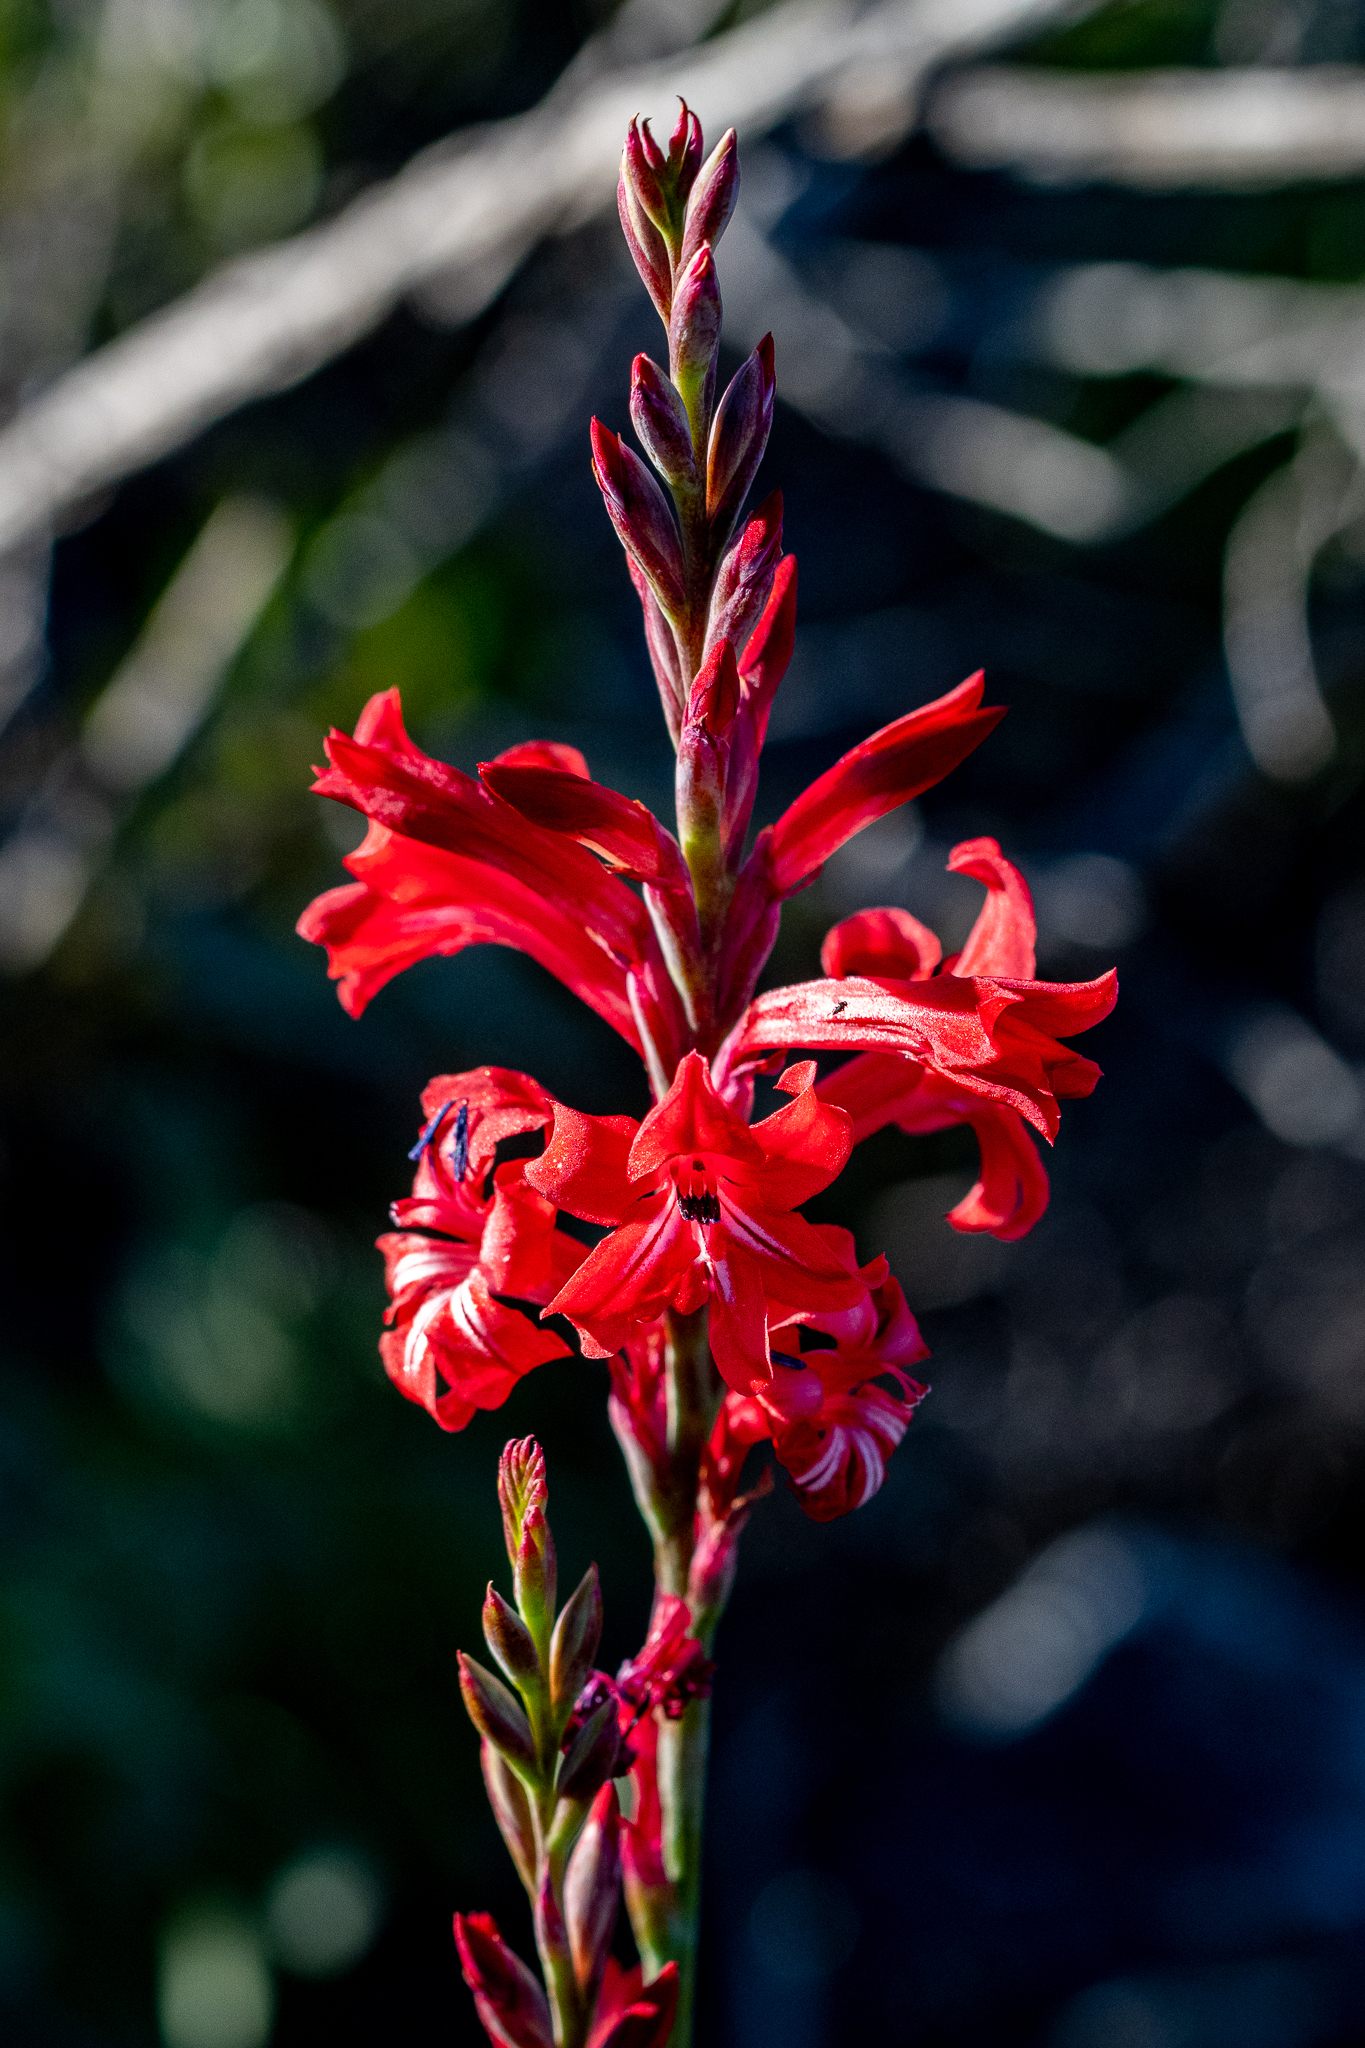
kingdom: Plantae
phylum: Tracheophyta
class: Liliopsida
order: Asparagales
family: Iridaceae
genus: Tritoniopsis
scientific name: Tritoniopsis pulchra
